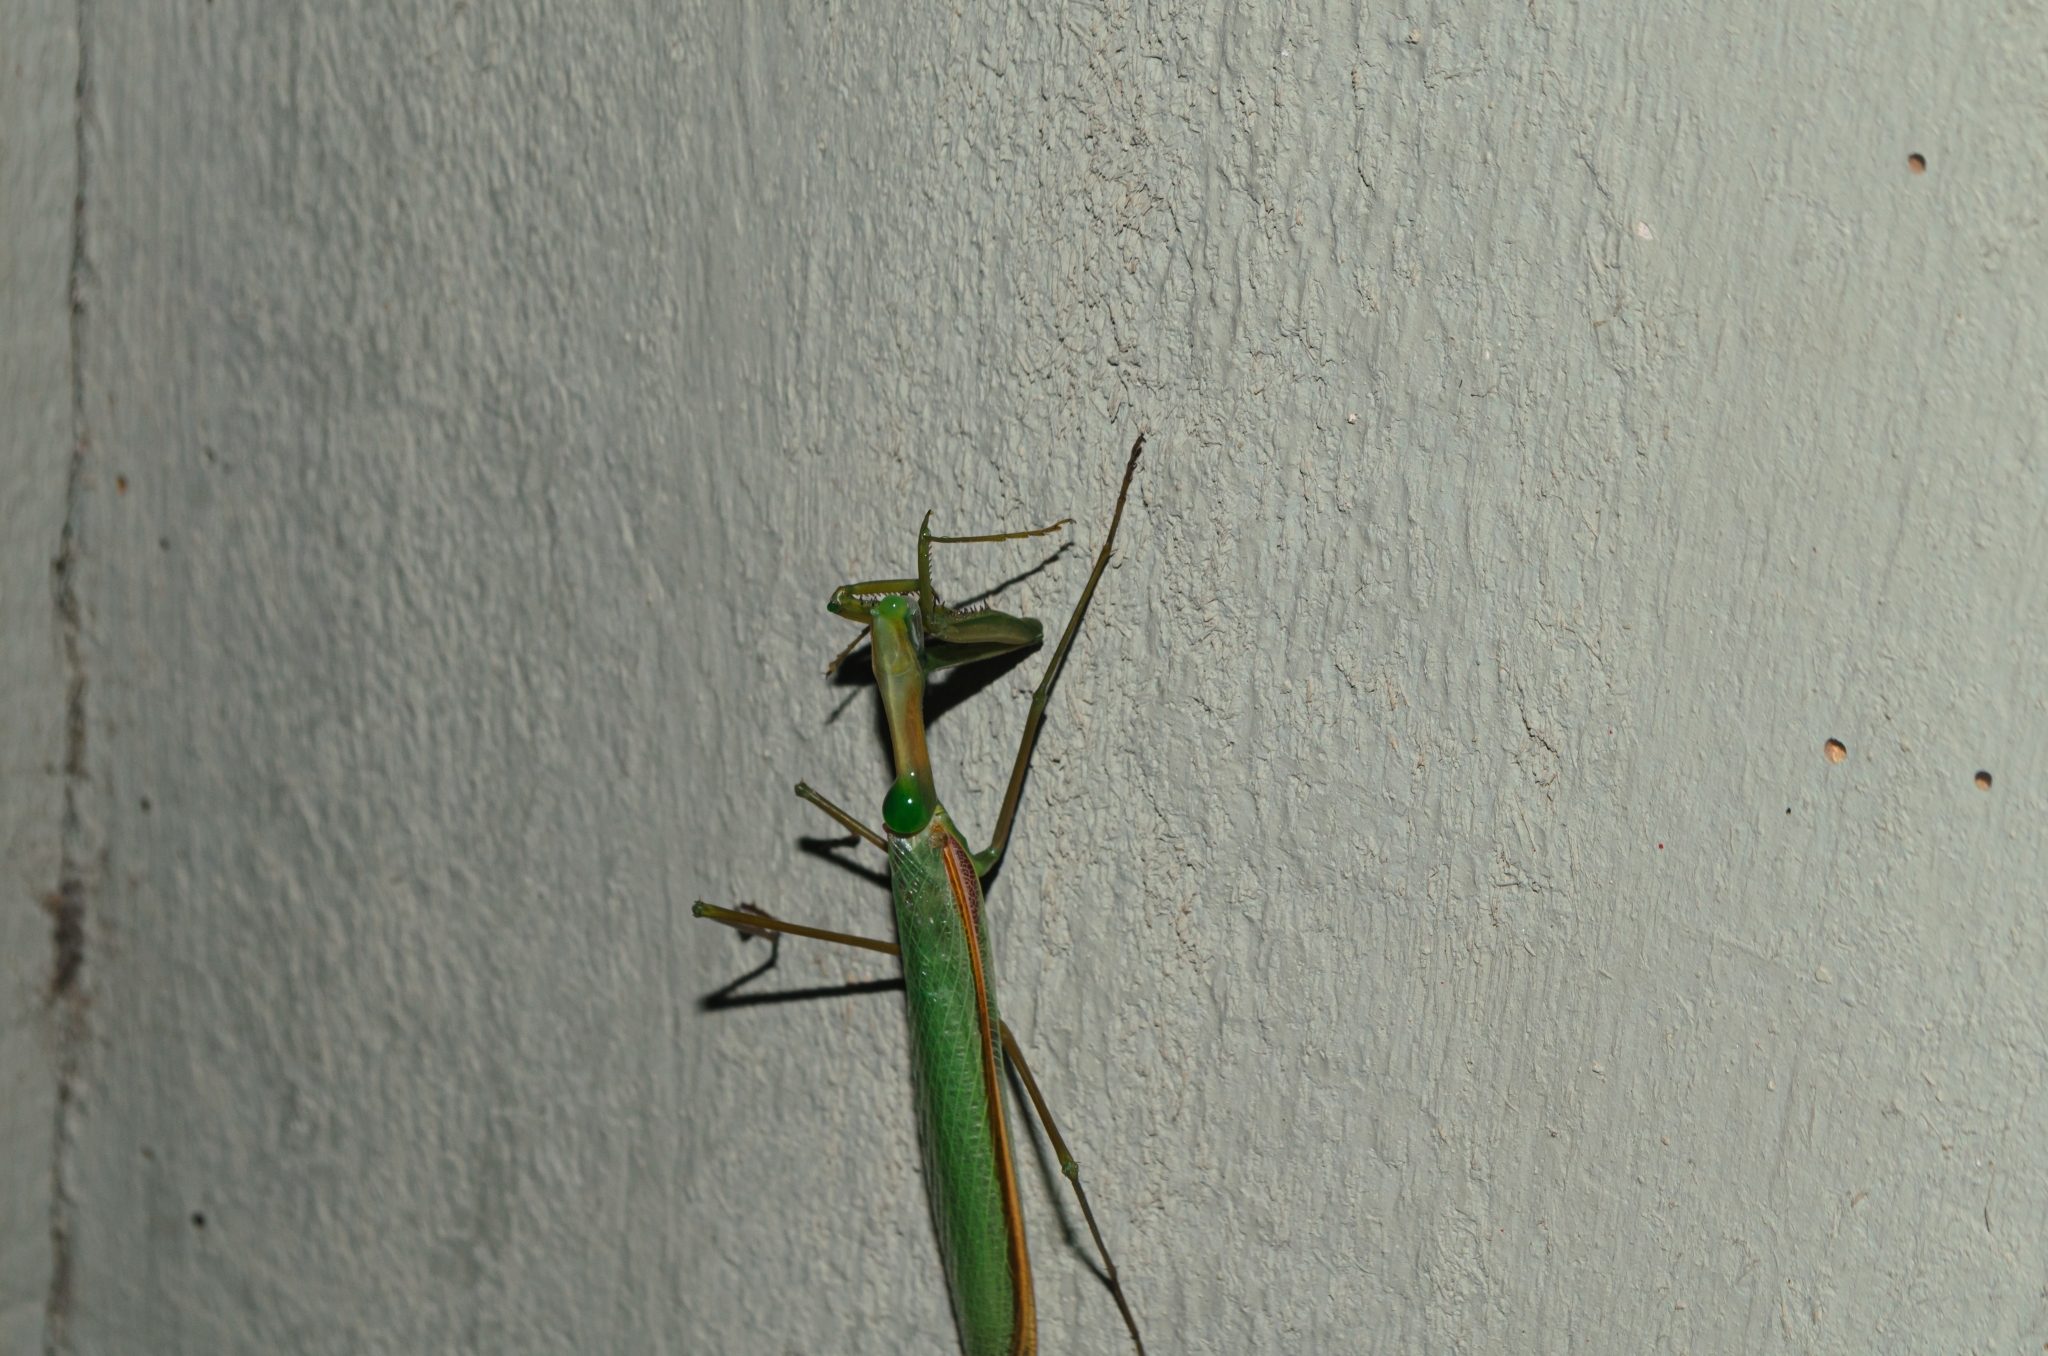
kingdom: Animalia
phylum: Arthropoda
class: Insecta
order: Mantodea
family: Coptopterygidae
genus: Coptopteryx
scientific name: Coptopteryx argentina
